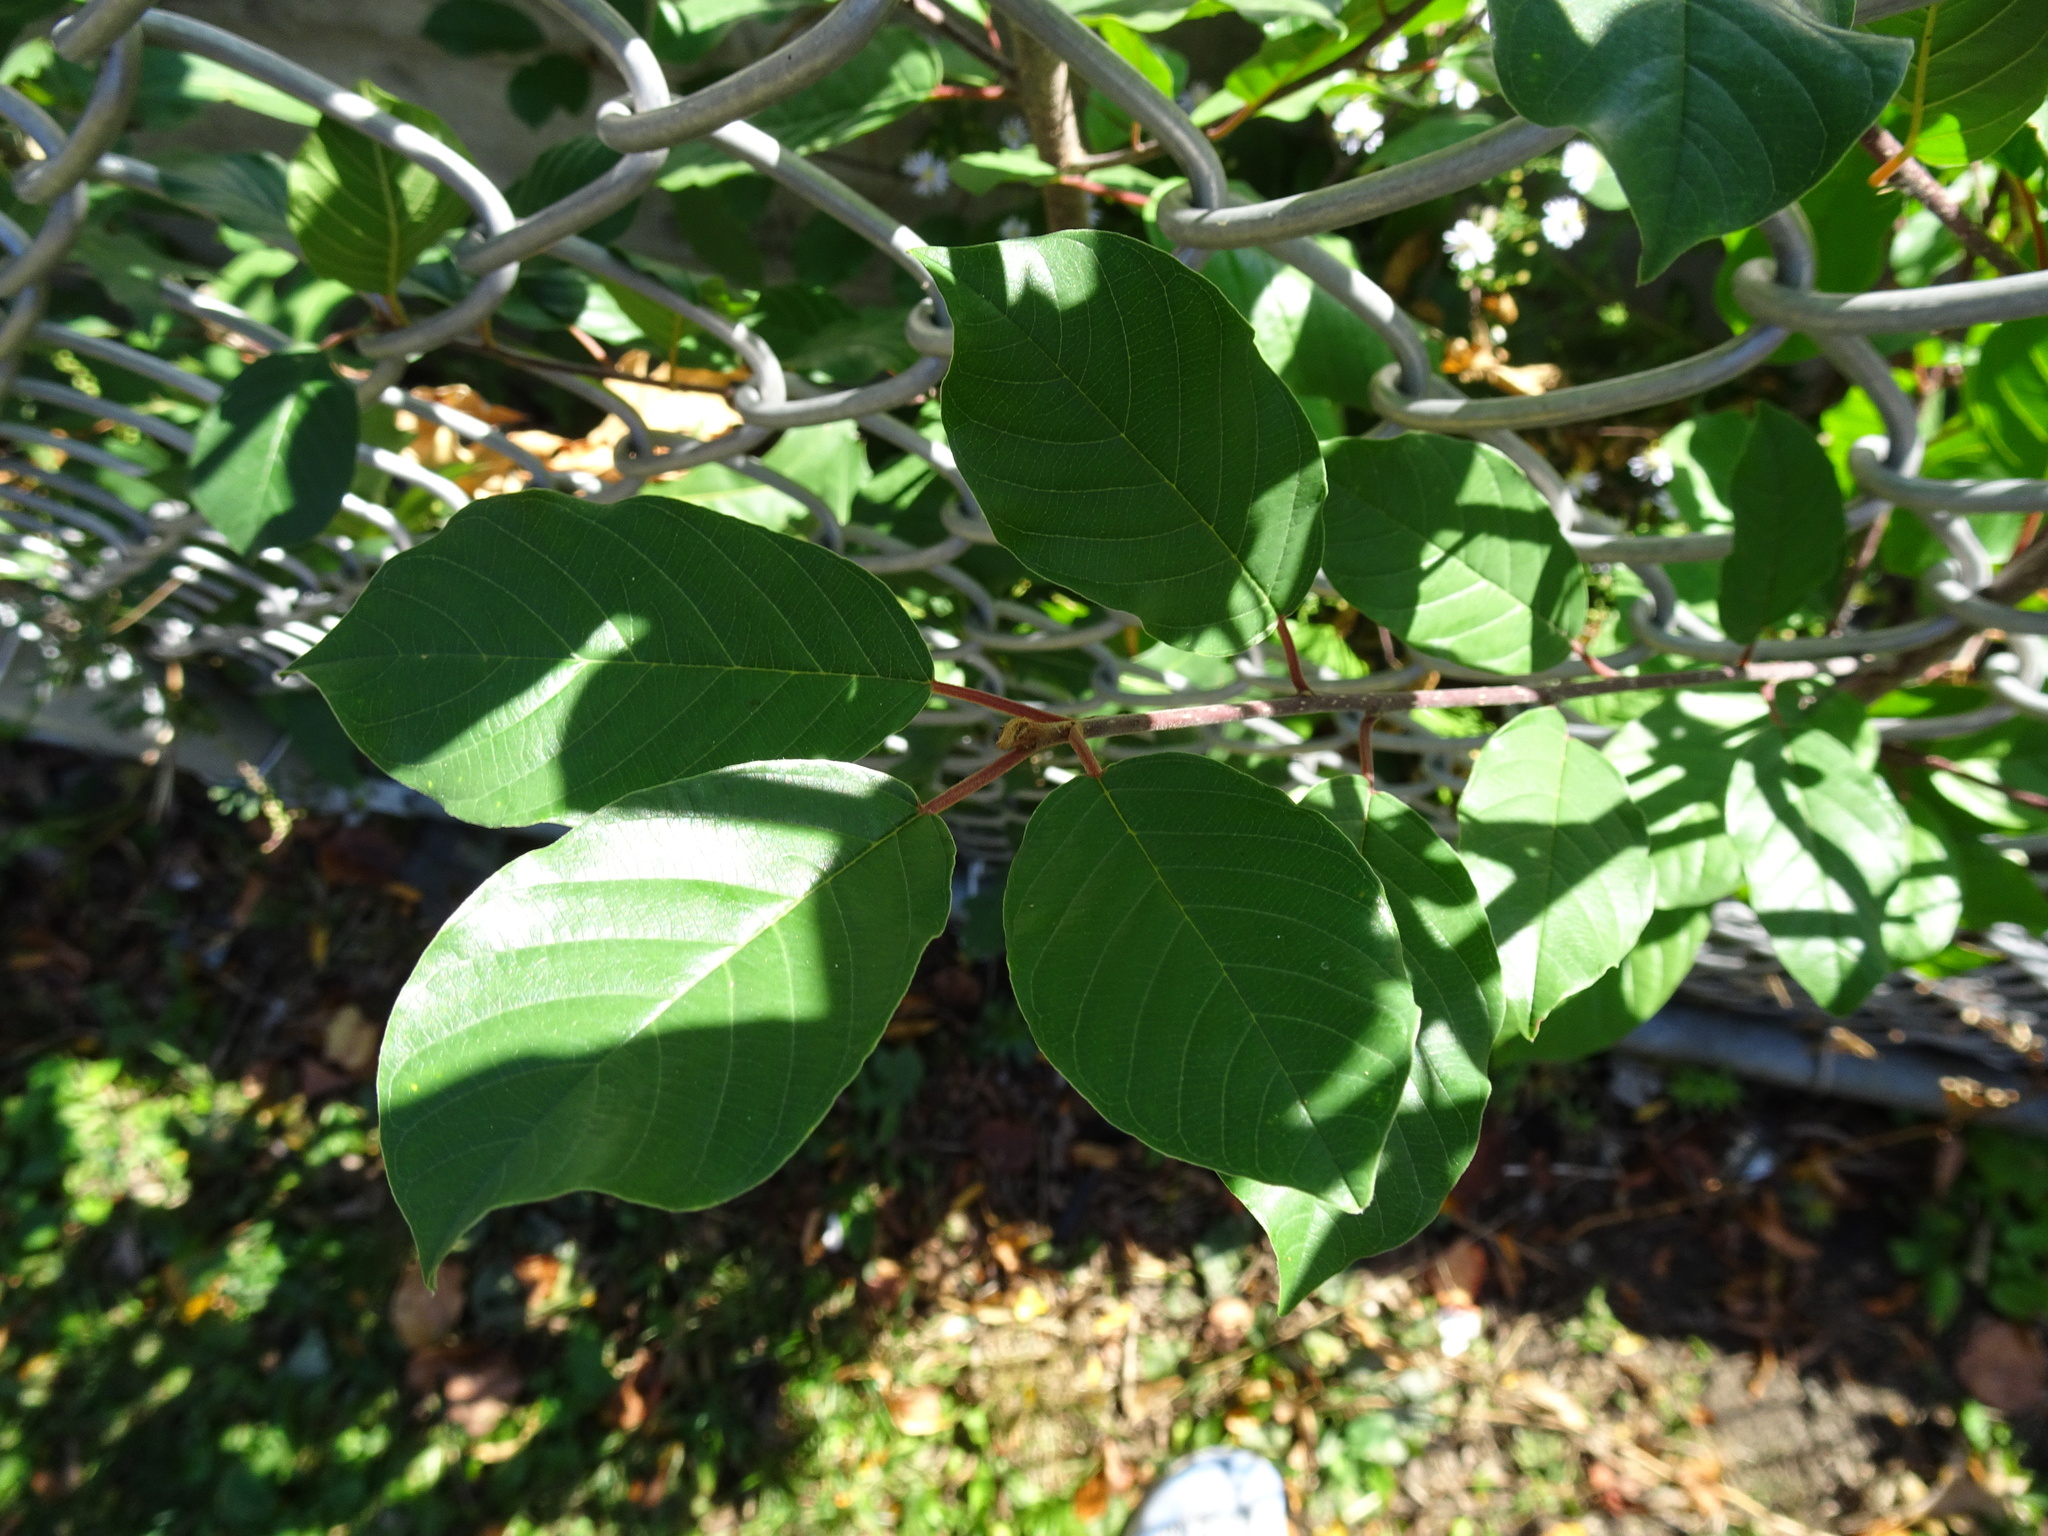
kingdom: Plantae
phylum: Tracheophyta
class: Magnoliopsida
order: Rosales
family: Rhamnaceae
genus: Frangula
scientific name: Frangula alnus
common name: Alder buckthorn
